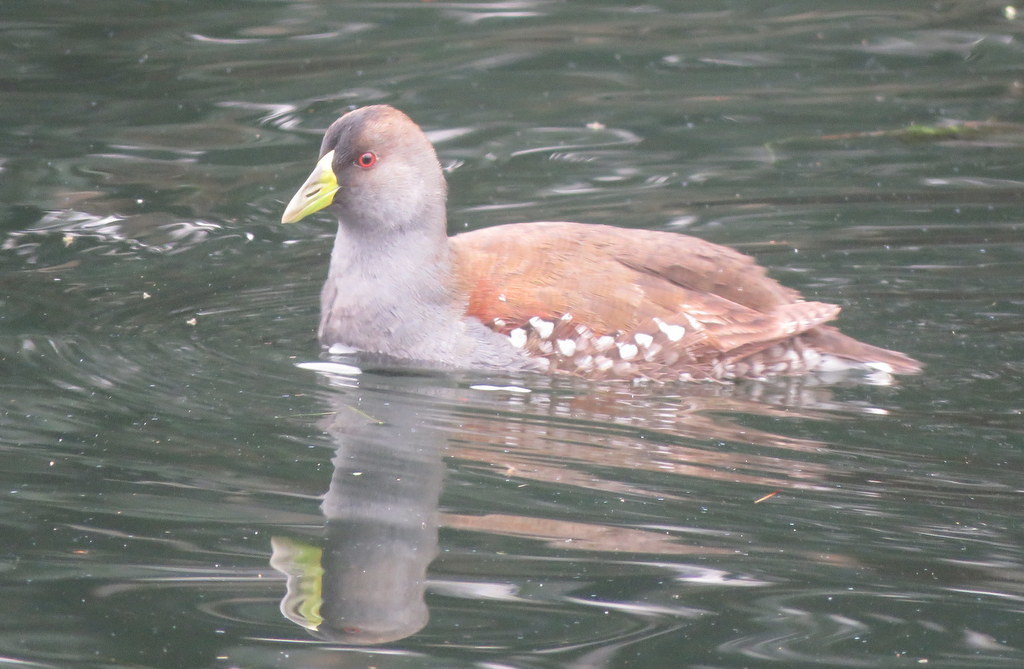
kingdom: Animalia
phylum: Chordata
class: Aves
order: Gruiformes
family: Rallidae
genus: Gallinula
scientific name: Gallinula melanops
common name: Spot-flanked gallinule
